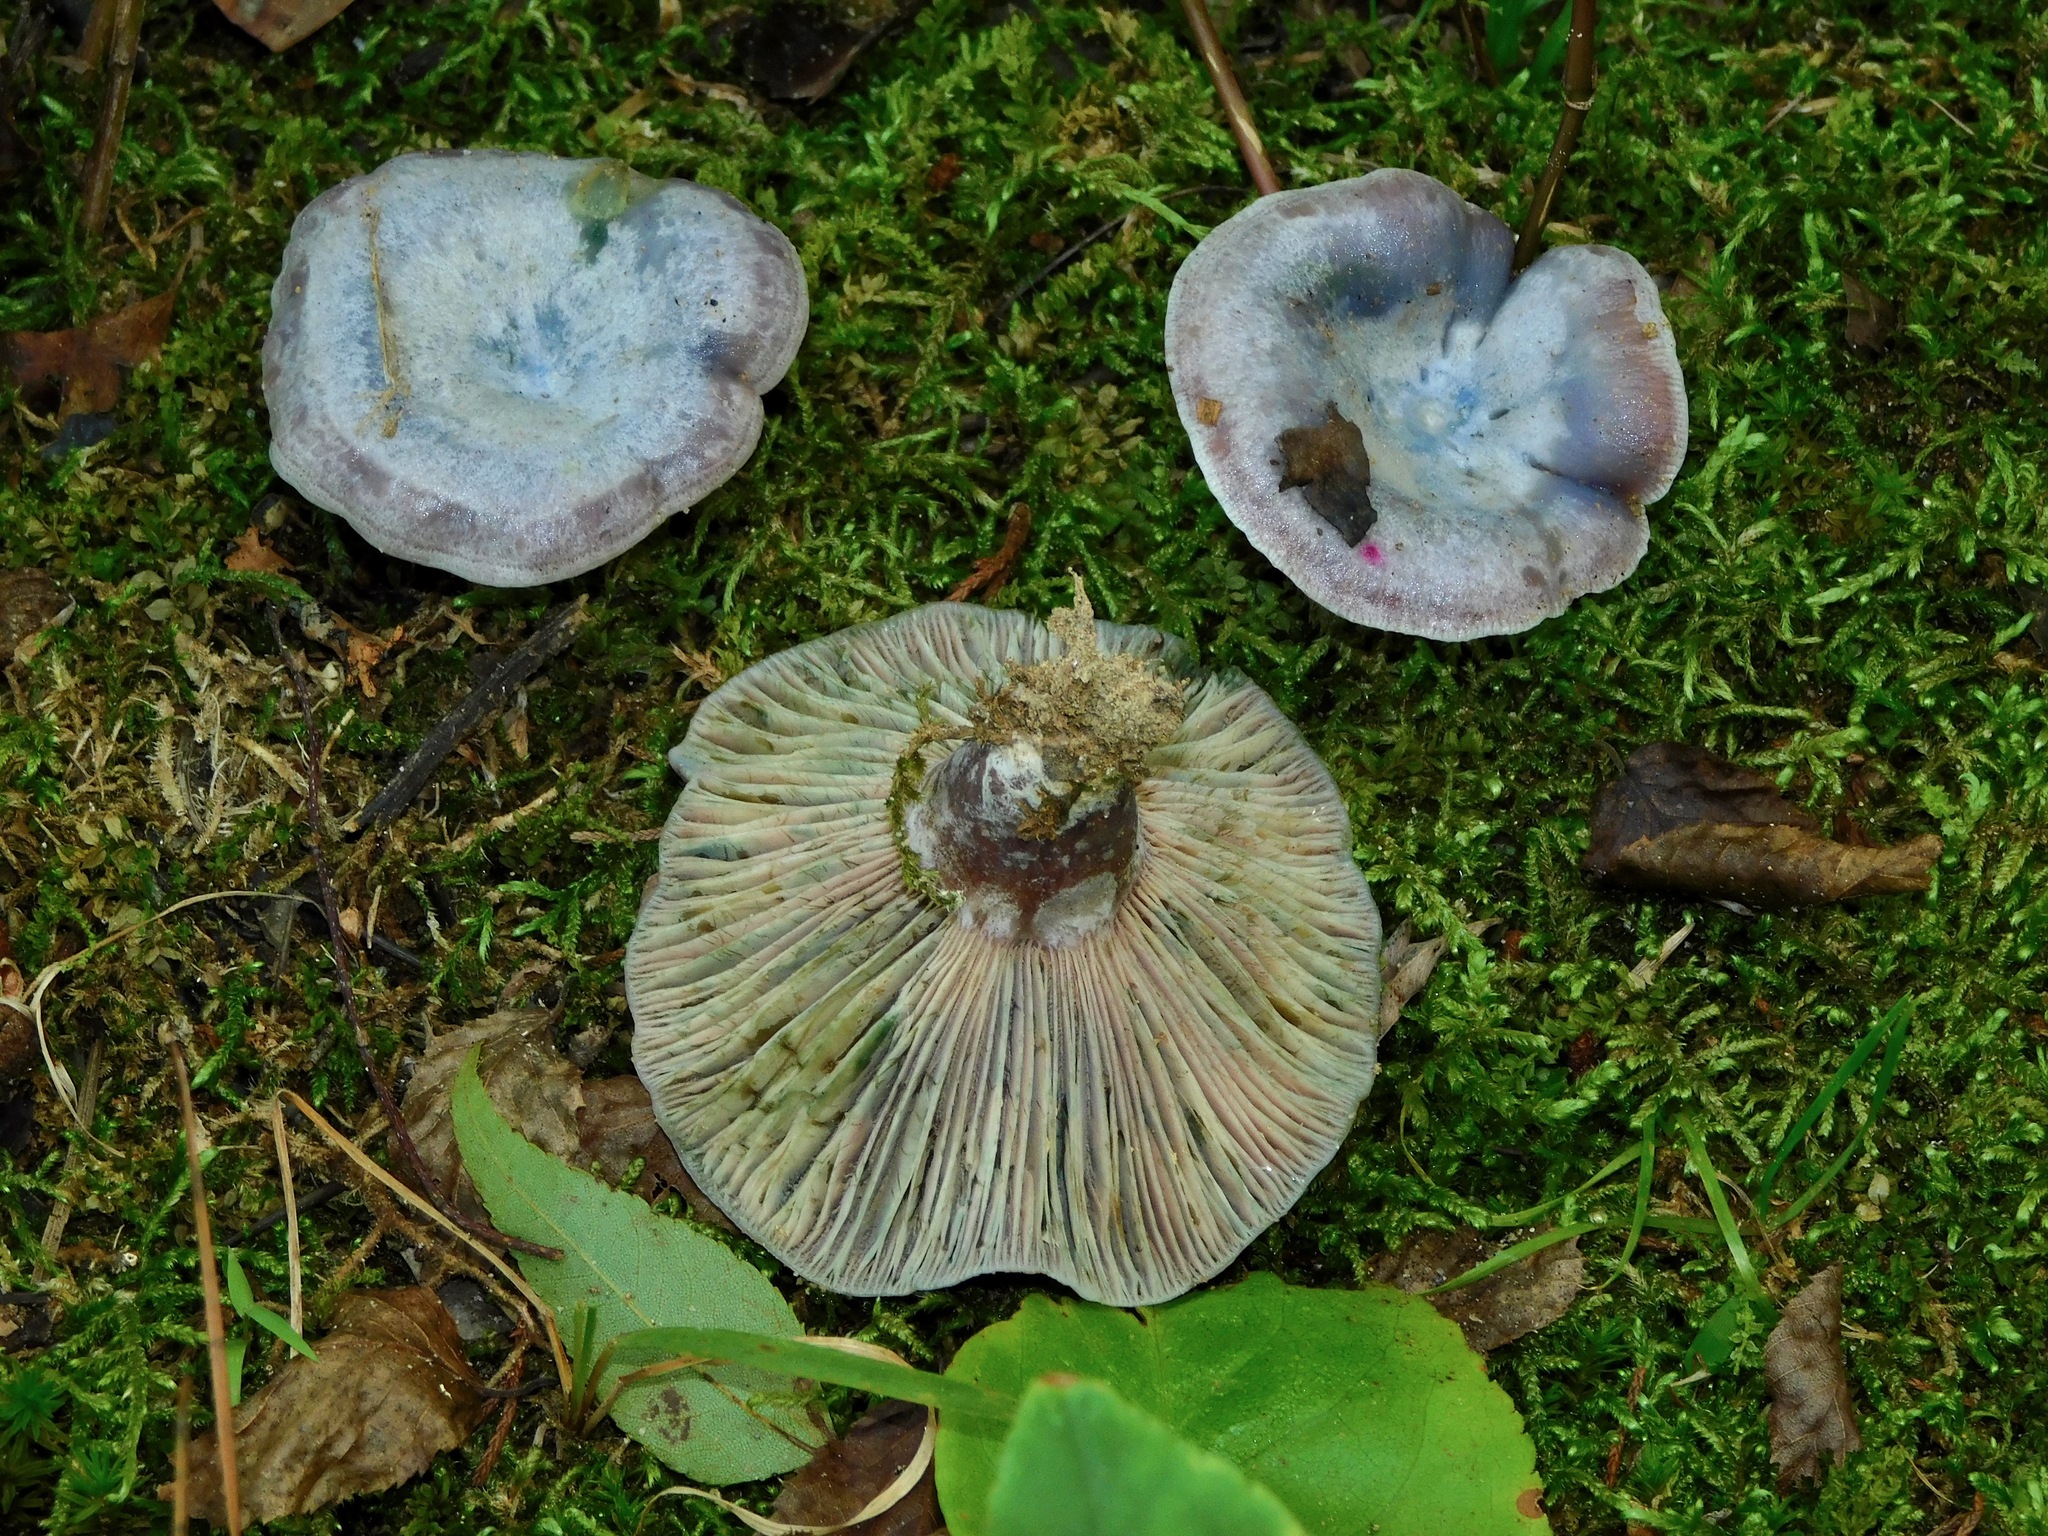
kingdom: Fungi
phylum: Basidiomycota
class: Agaricomycetes
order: Russulales
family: Russulaceae
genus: Lactarius
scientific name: Lactarius paradoxus
